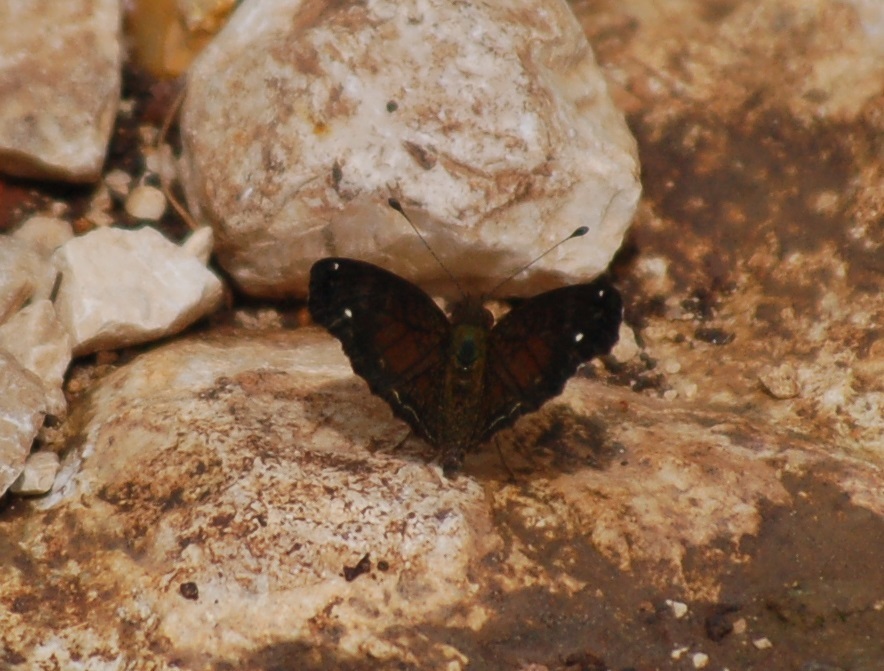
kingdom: Animalia
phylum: Arthropoda
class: Insecta
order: Lepidoptera
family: Nymphalidae
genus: Anthanassa
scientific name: Anthanassa argentea
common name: Chestnut crescent
